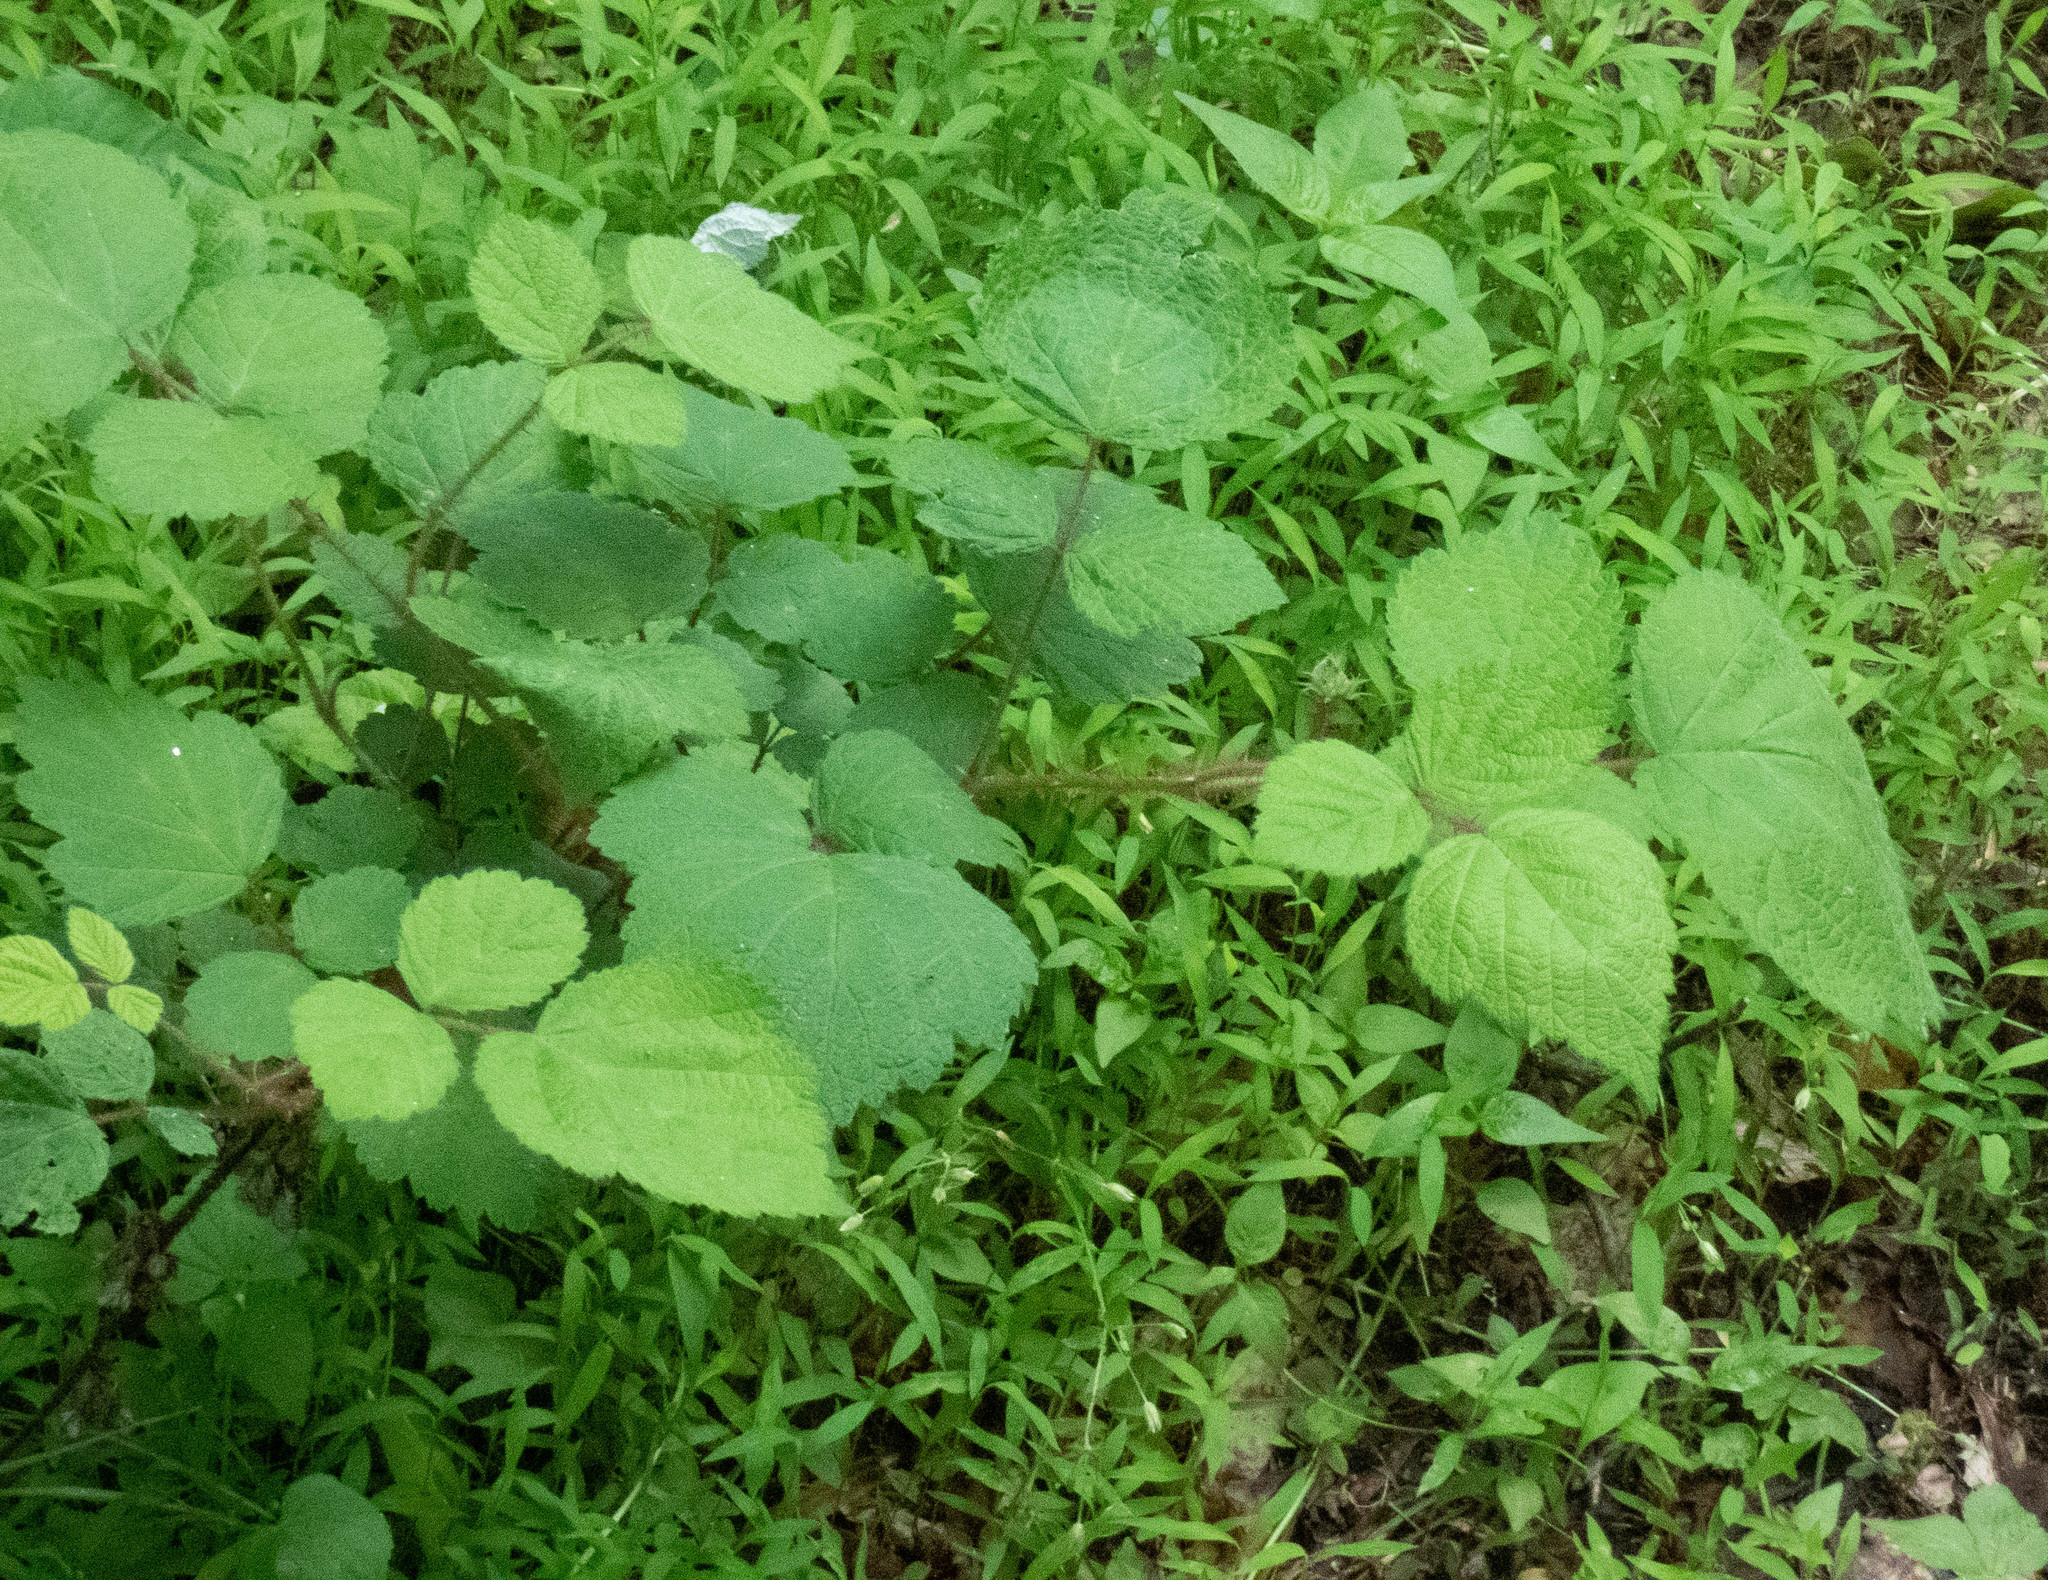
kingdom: Plantae
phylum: Tracheophyta
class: Magnoliopsida
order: Rosales
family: Rosaceae
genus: Rubus
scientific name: Rubus phoenicolasius
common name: Japanese wineberry
